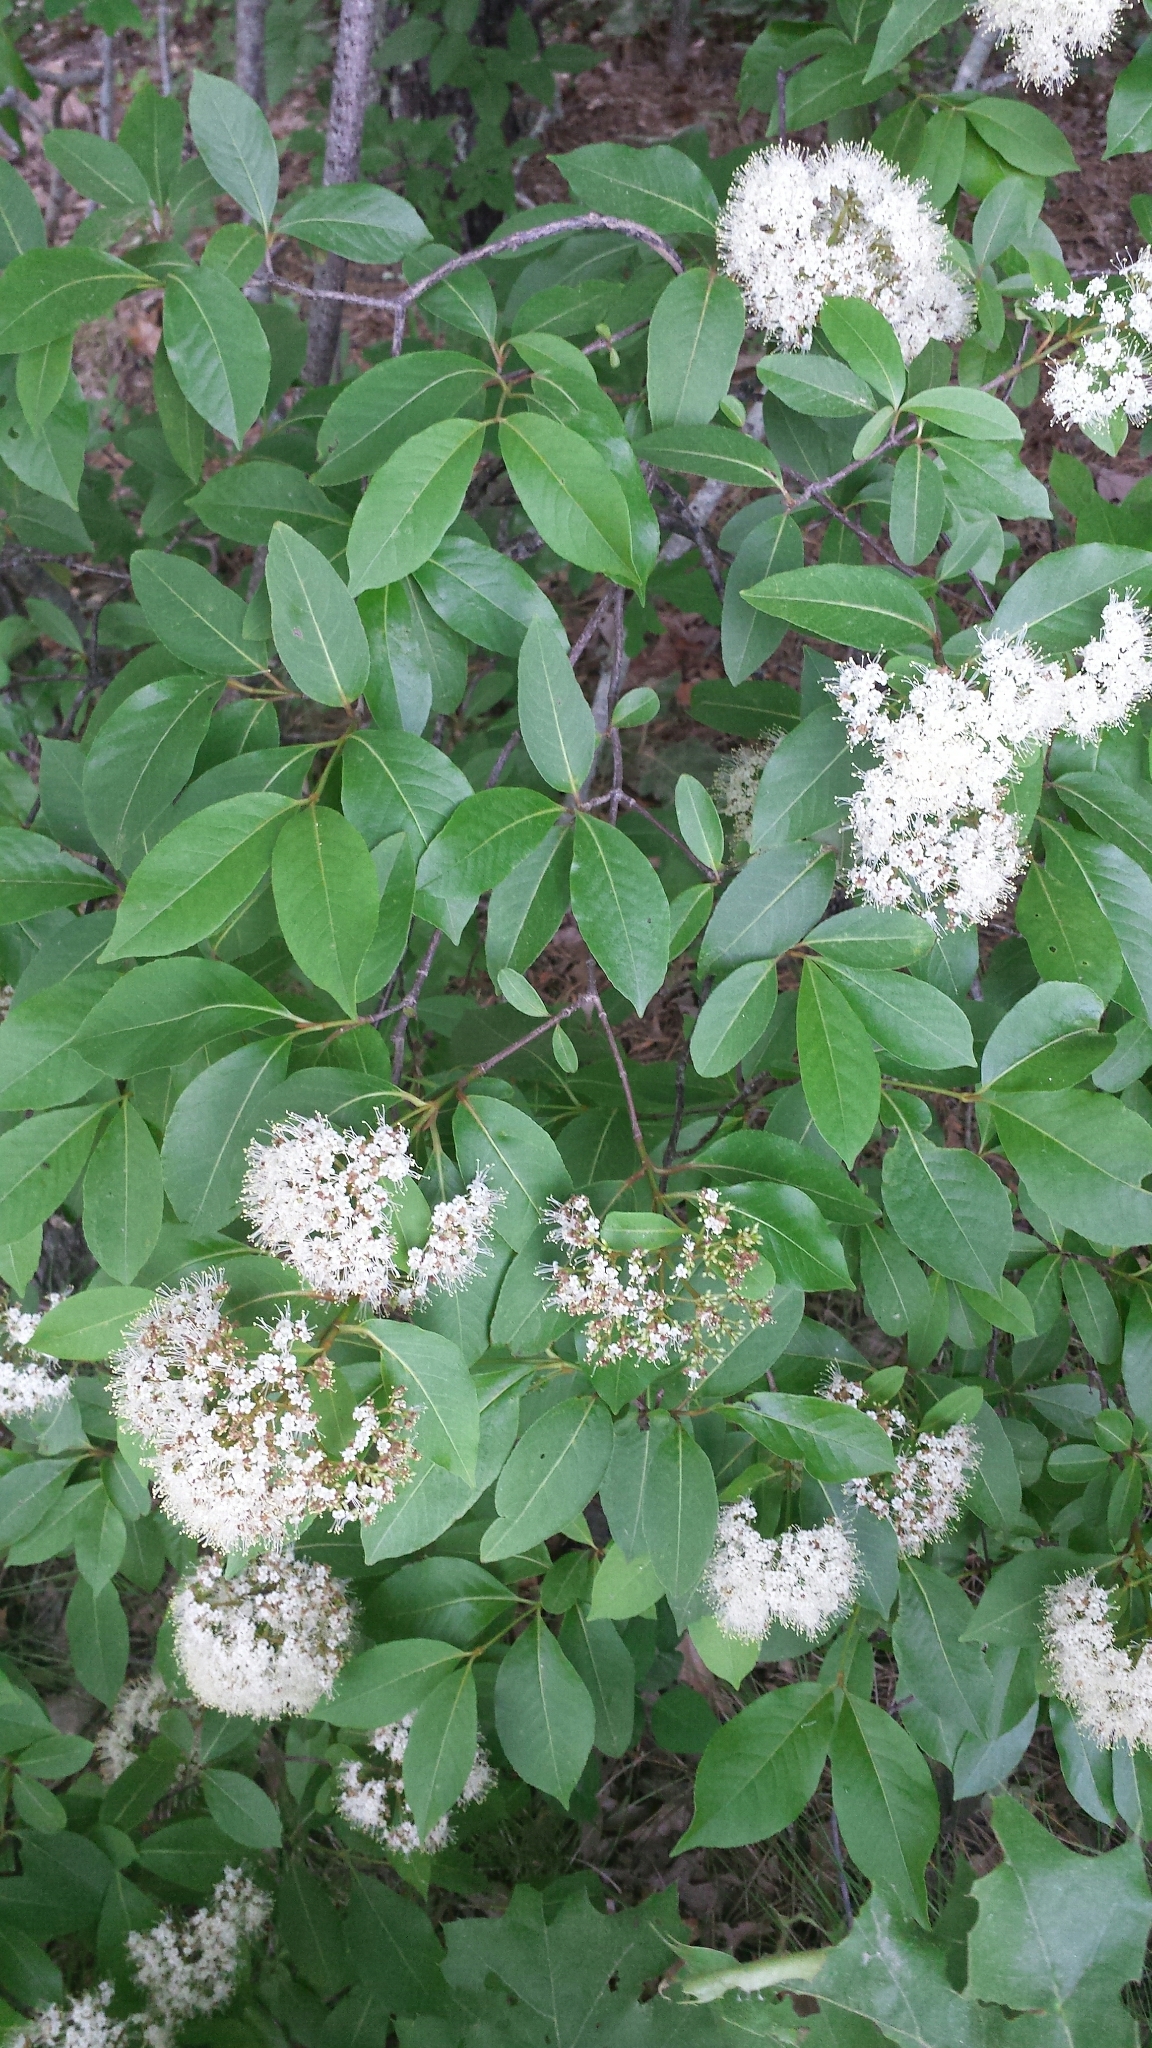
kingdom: Plantae
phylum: Tracheophyta
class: Magnoliopsida
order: Dipsacales
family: Viburnaceae
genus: Viburnum
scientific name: Viburnum cassinoides
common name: Swamp haw
